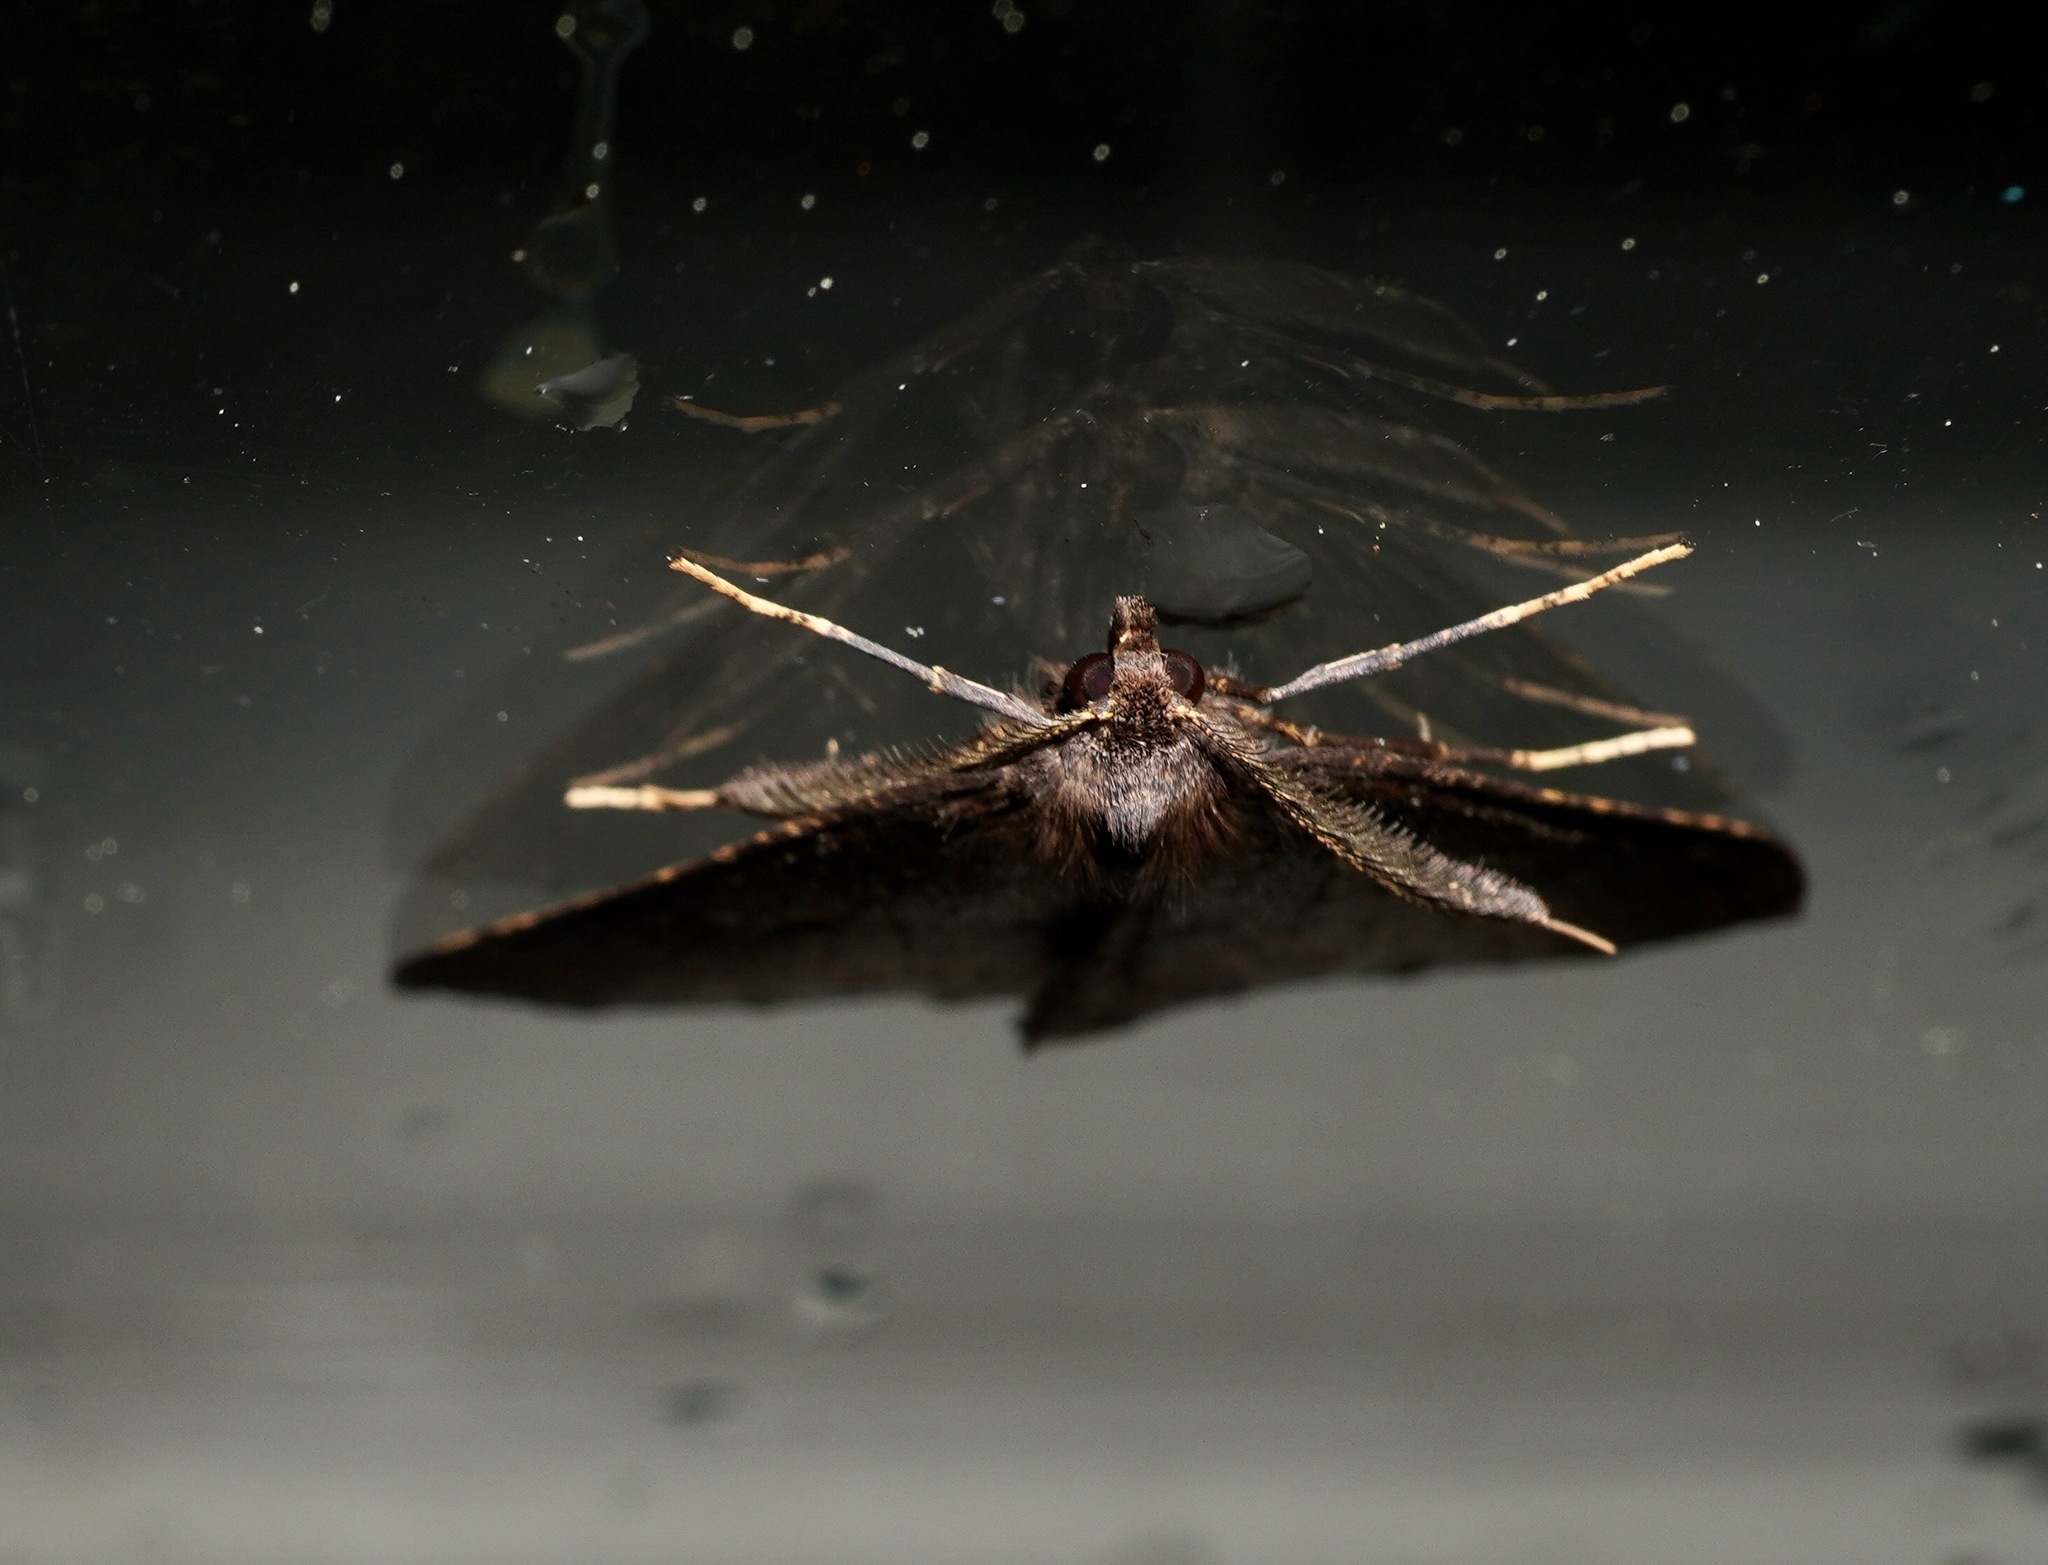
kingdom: Animalia
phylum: Arthropoda
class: Insecta
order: Lepidoptera
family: Geometridae
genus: Cleora
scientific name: Cleora scriptaria
